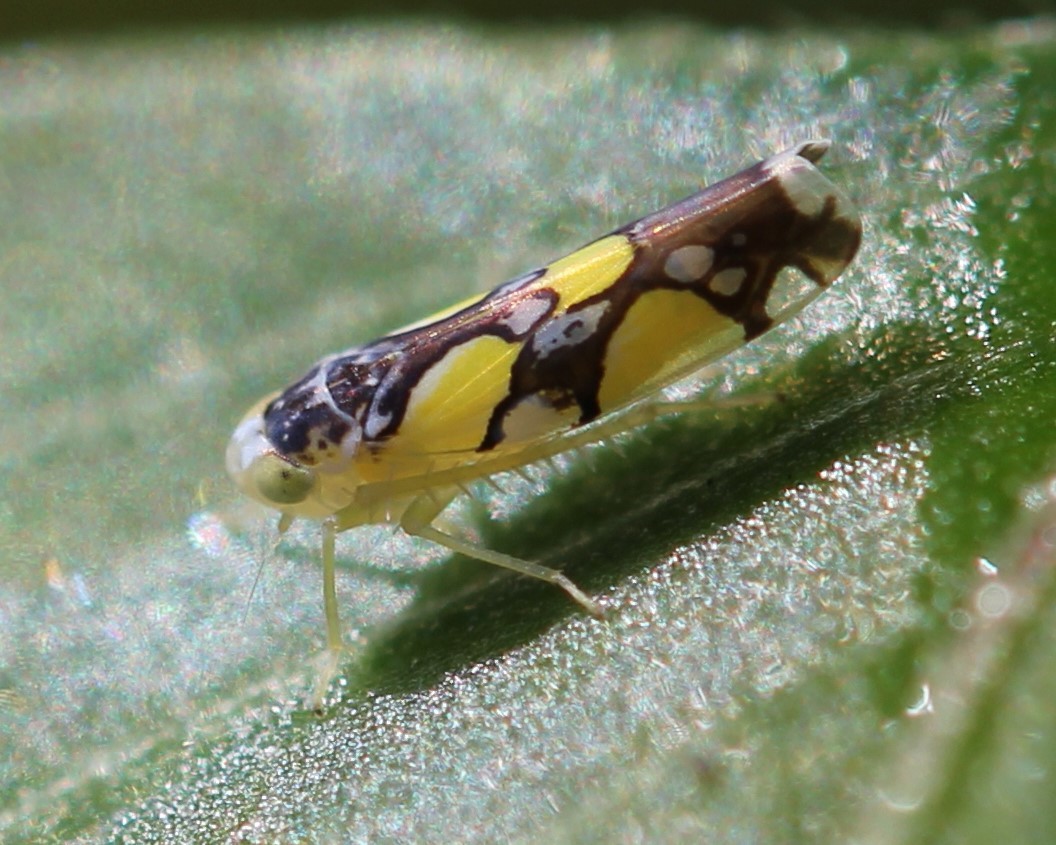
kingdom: Animalia
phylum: Arthropoda
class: Insecta
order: Hemiptera
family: Cicadellidae
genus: Protalebrella
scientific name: Protalebrella brasiliensis
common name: Brasilian leafhopper
